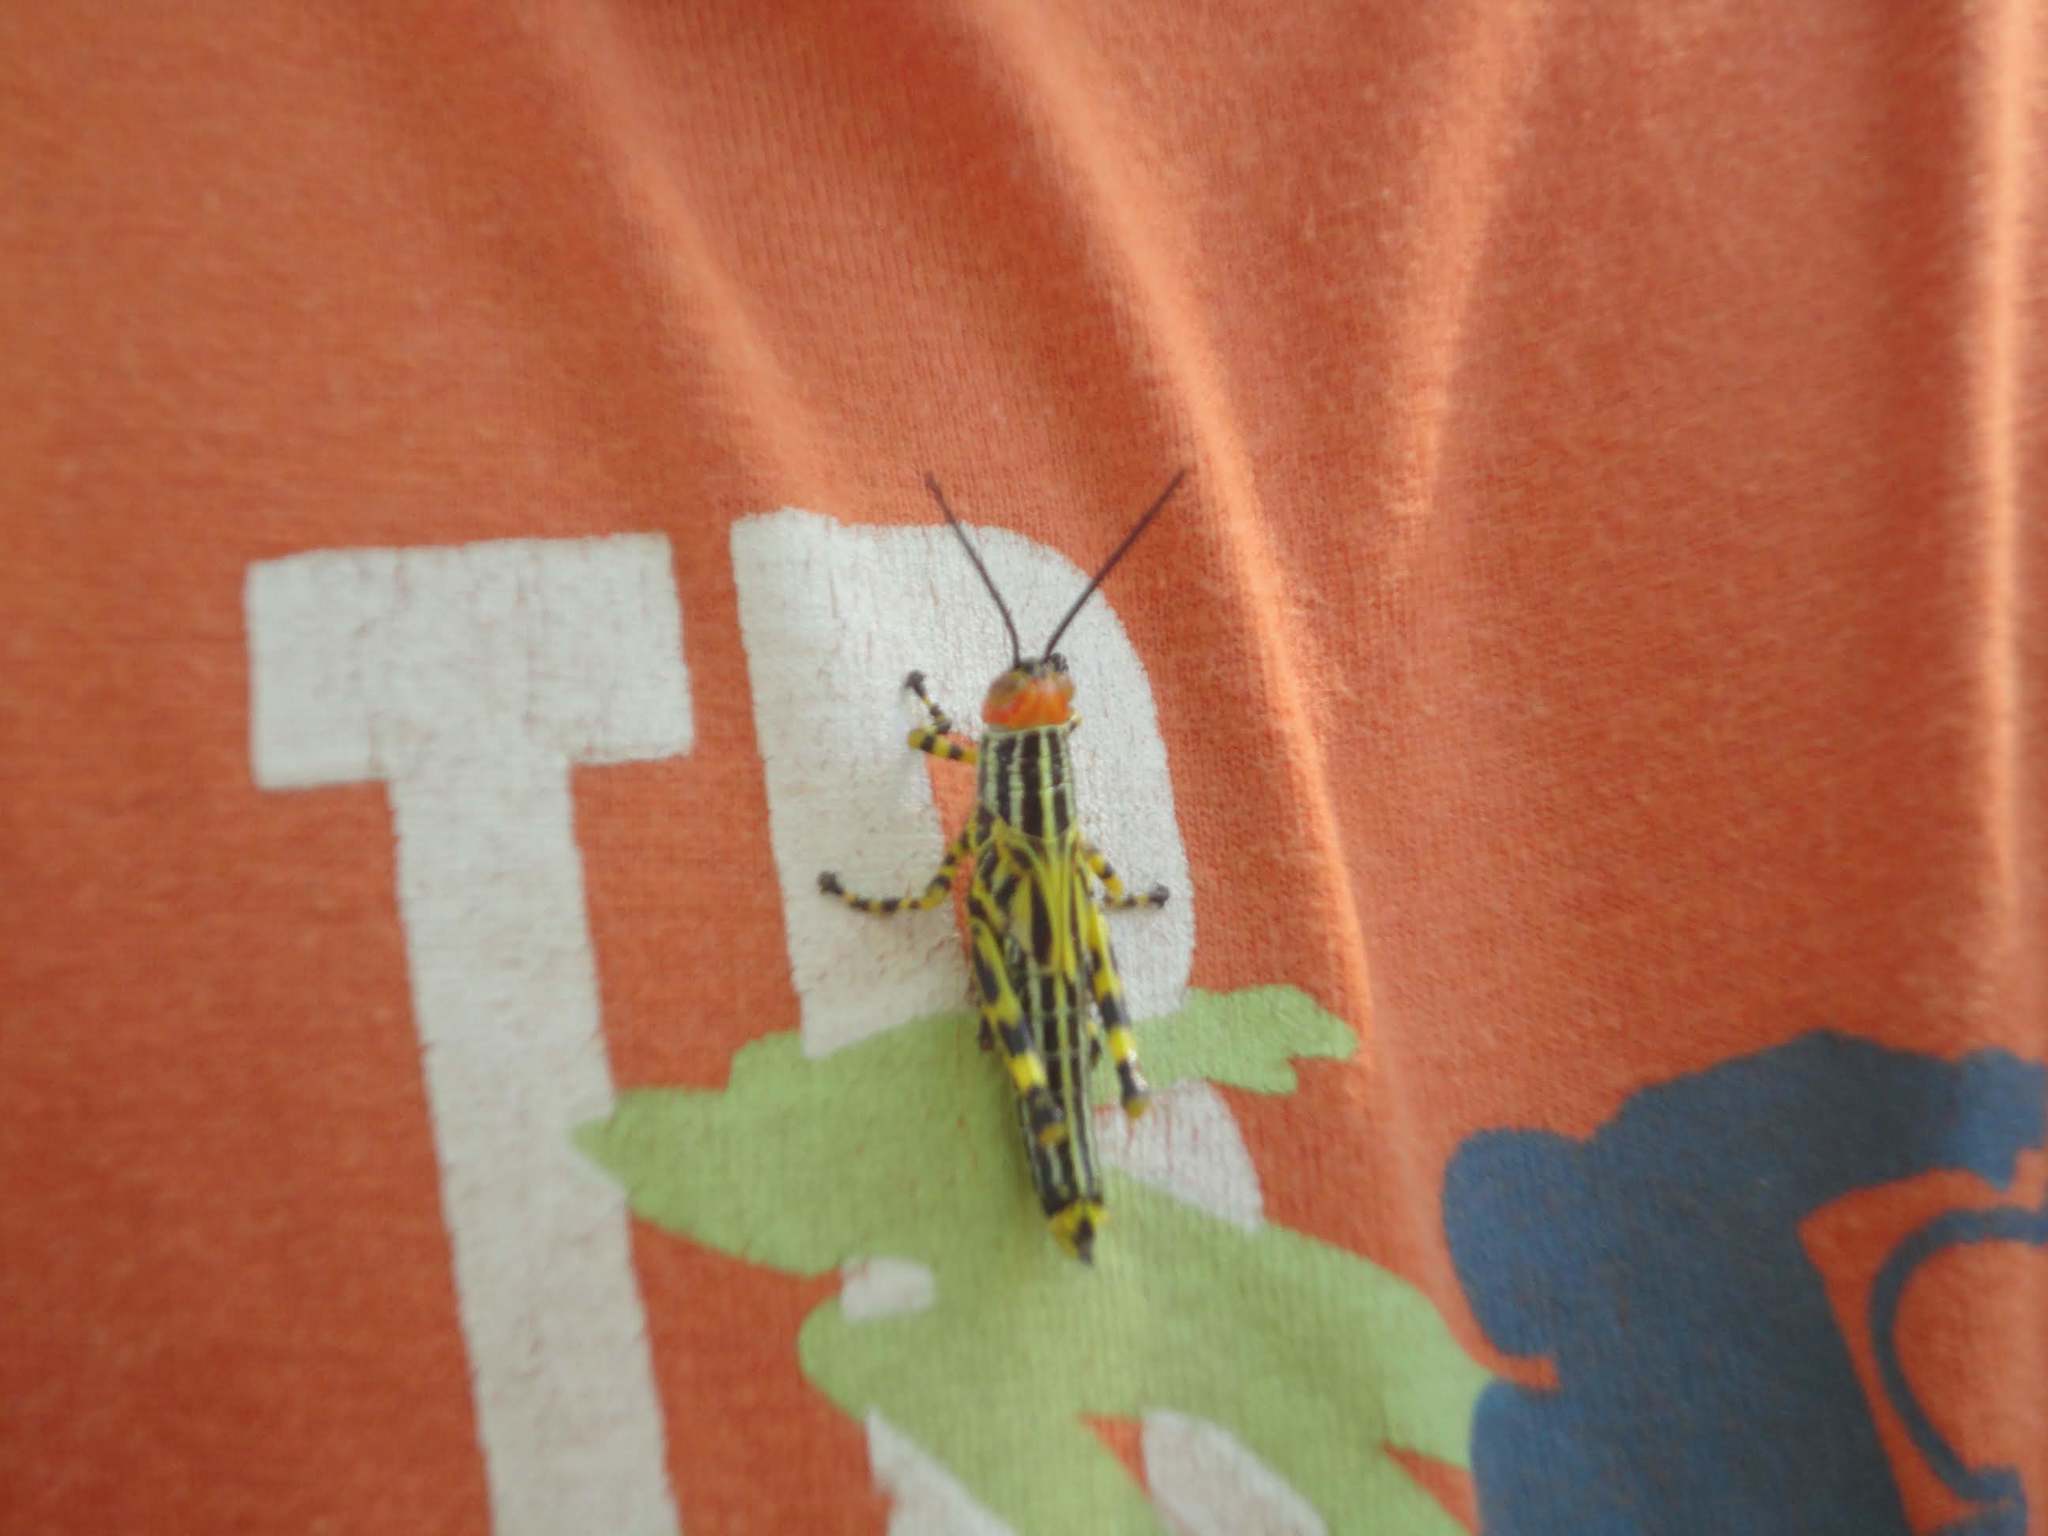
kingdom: Animalia
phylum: Arthropoda
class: Insecta
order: Orthoptera
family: Romaleidae
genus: Zoniopoda
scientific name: Zoniopoda tarsata
